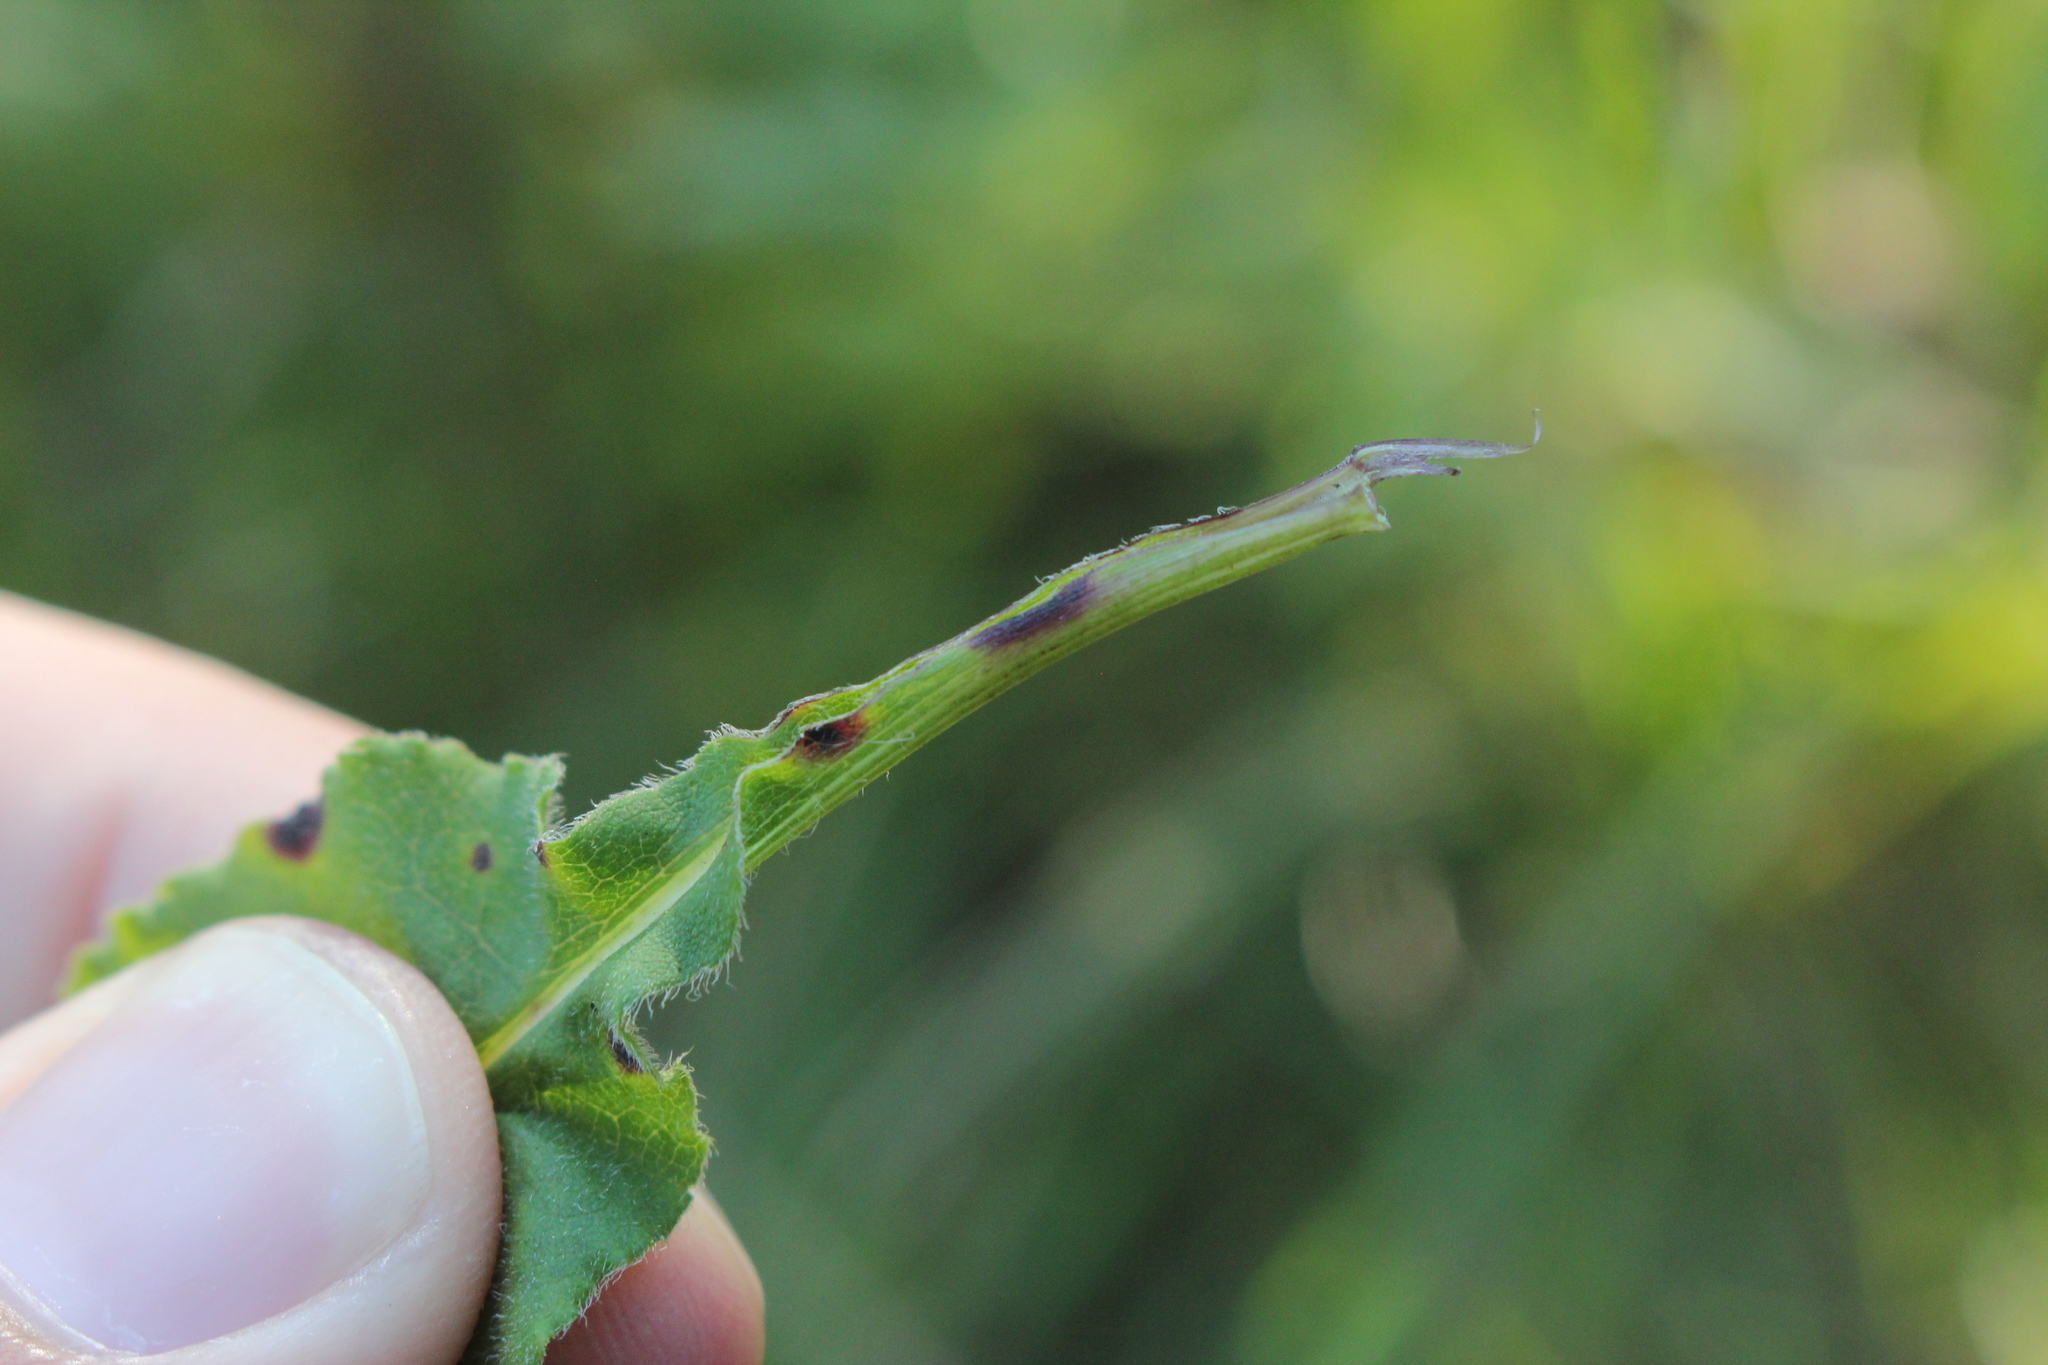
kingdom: Plantae
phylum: Tracheophyta
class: Magnoliopsida
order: Asterales
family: Asteraceae
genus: Symphyotrichum
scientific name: Symphyotrichum urophyllum
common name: Arrow-leaved aster
